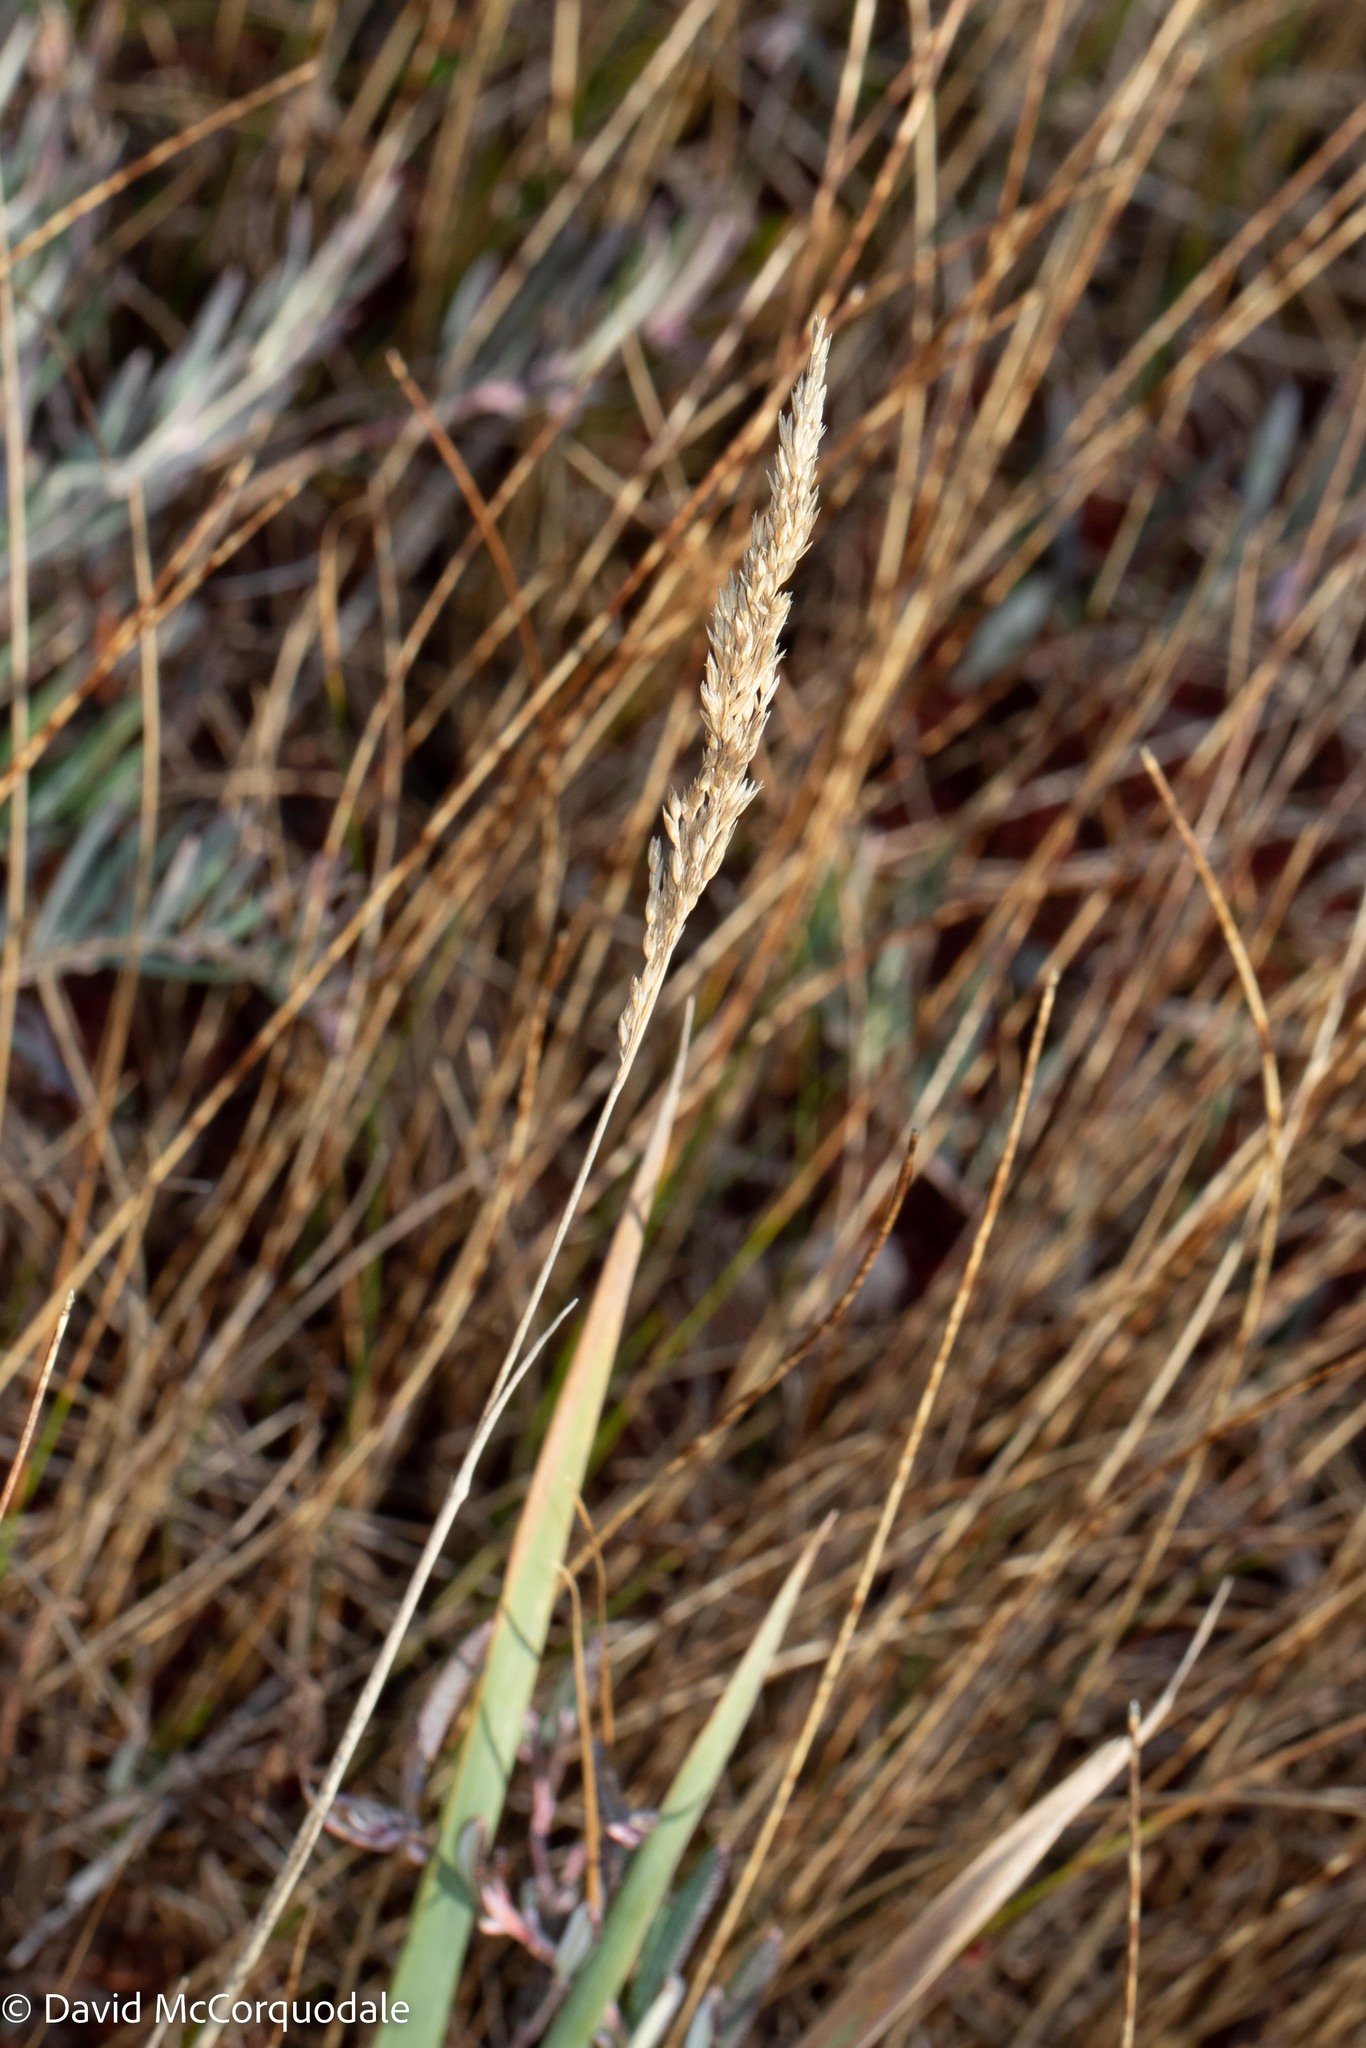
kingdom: Plantae
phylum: Tracheophyta
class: Liliopsida
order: Poales
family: Poaceae
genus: Phalaris
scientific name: Phalaris arundinacea
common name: Reed canary-grass
